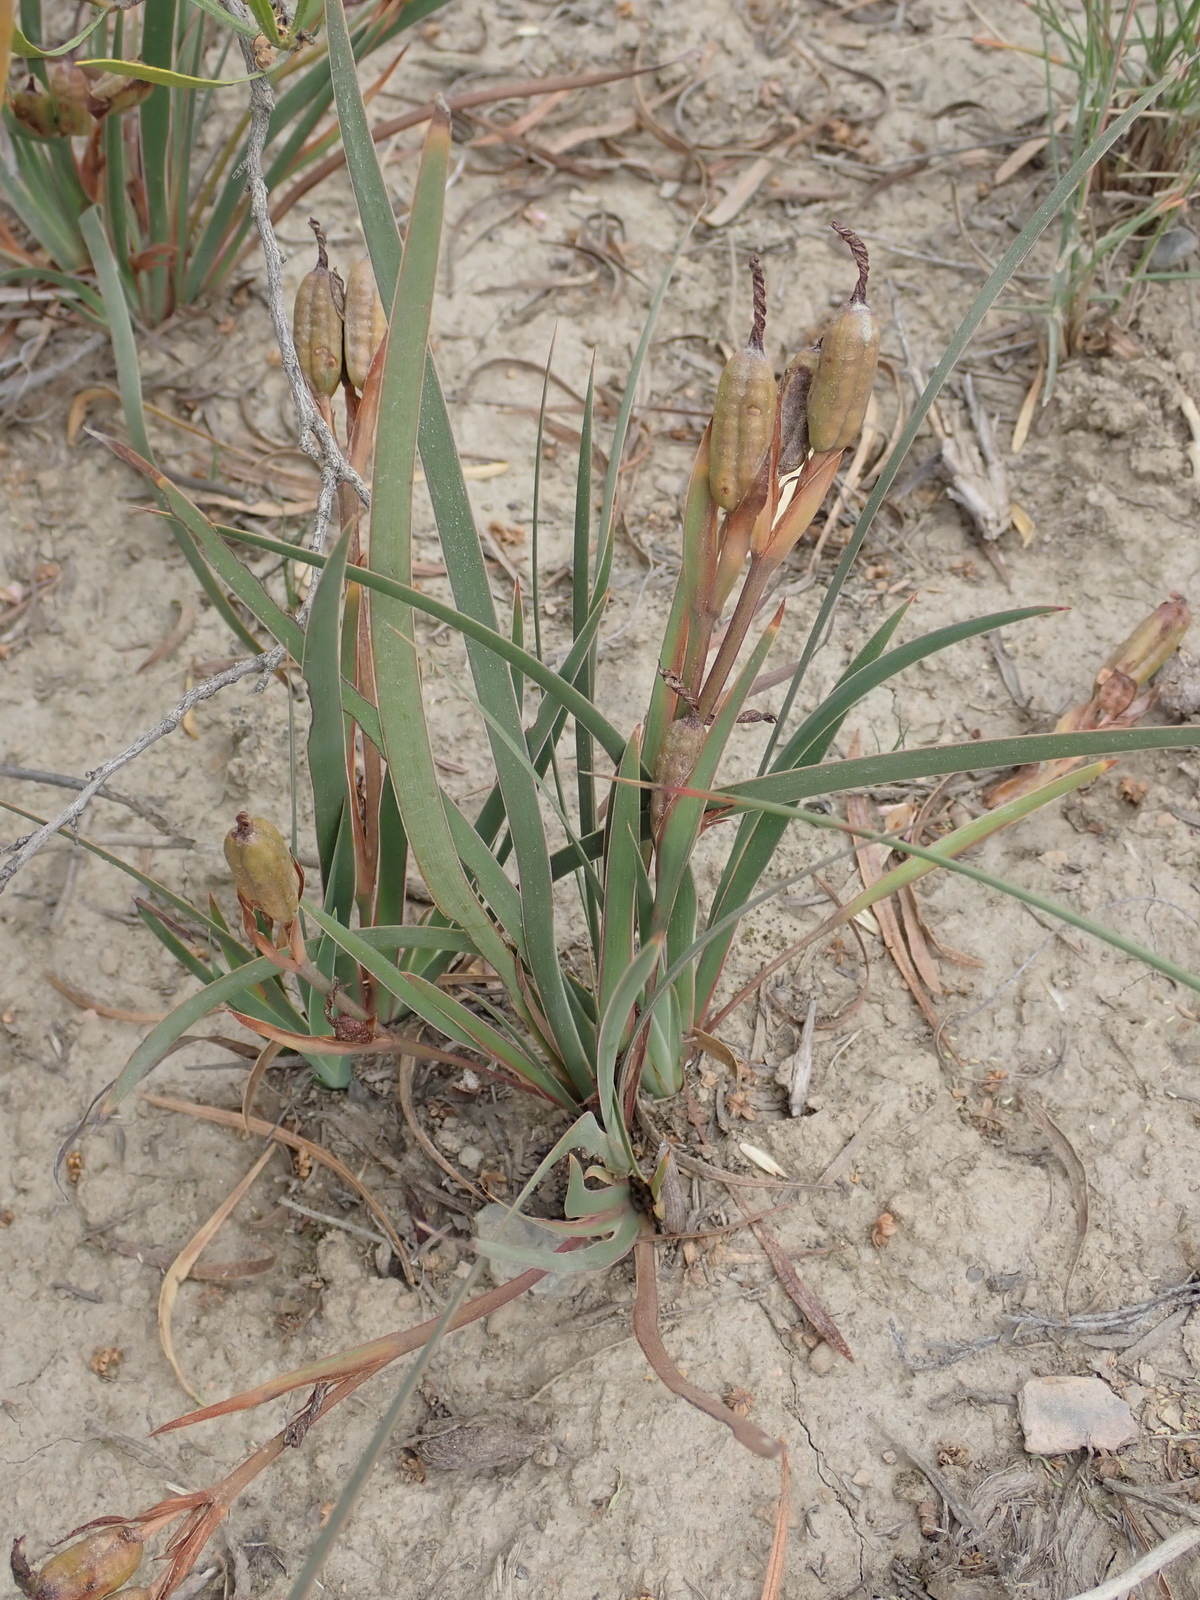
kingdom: Plantae
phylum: Tracheophyta
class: Liliopsida
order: Asparagales
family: Iridaceae
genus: Aristea
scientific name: Aristea pusilla
